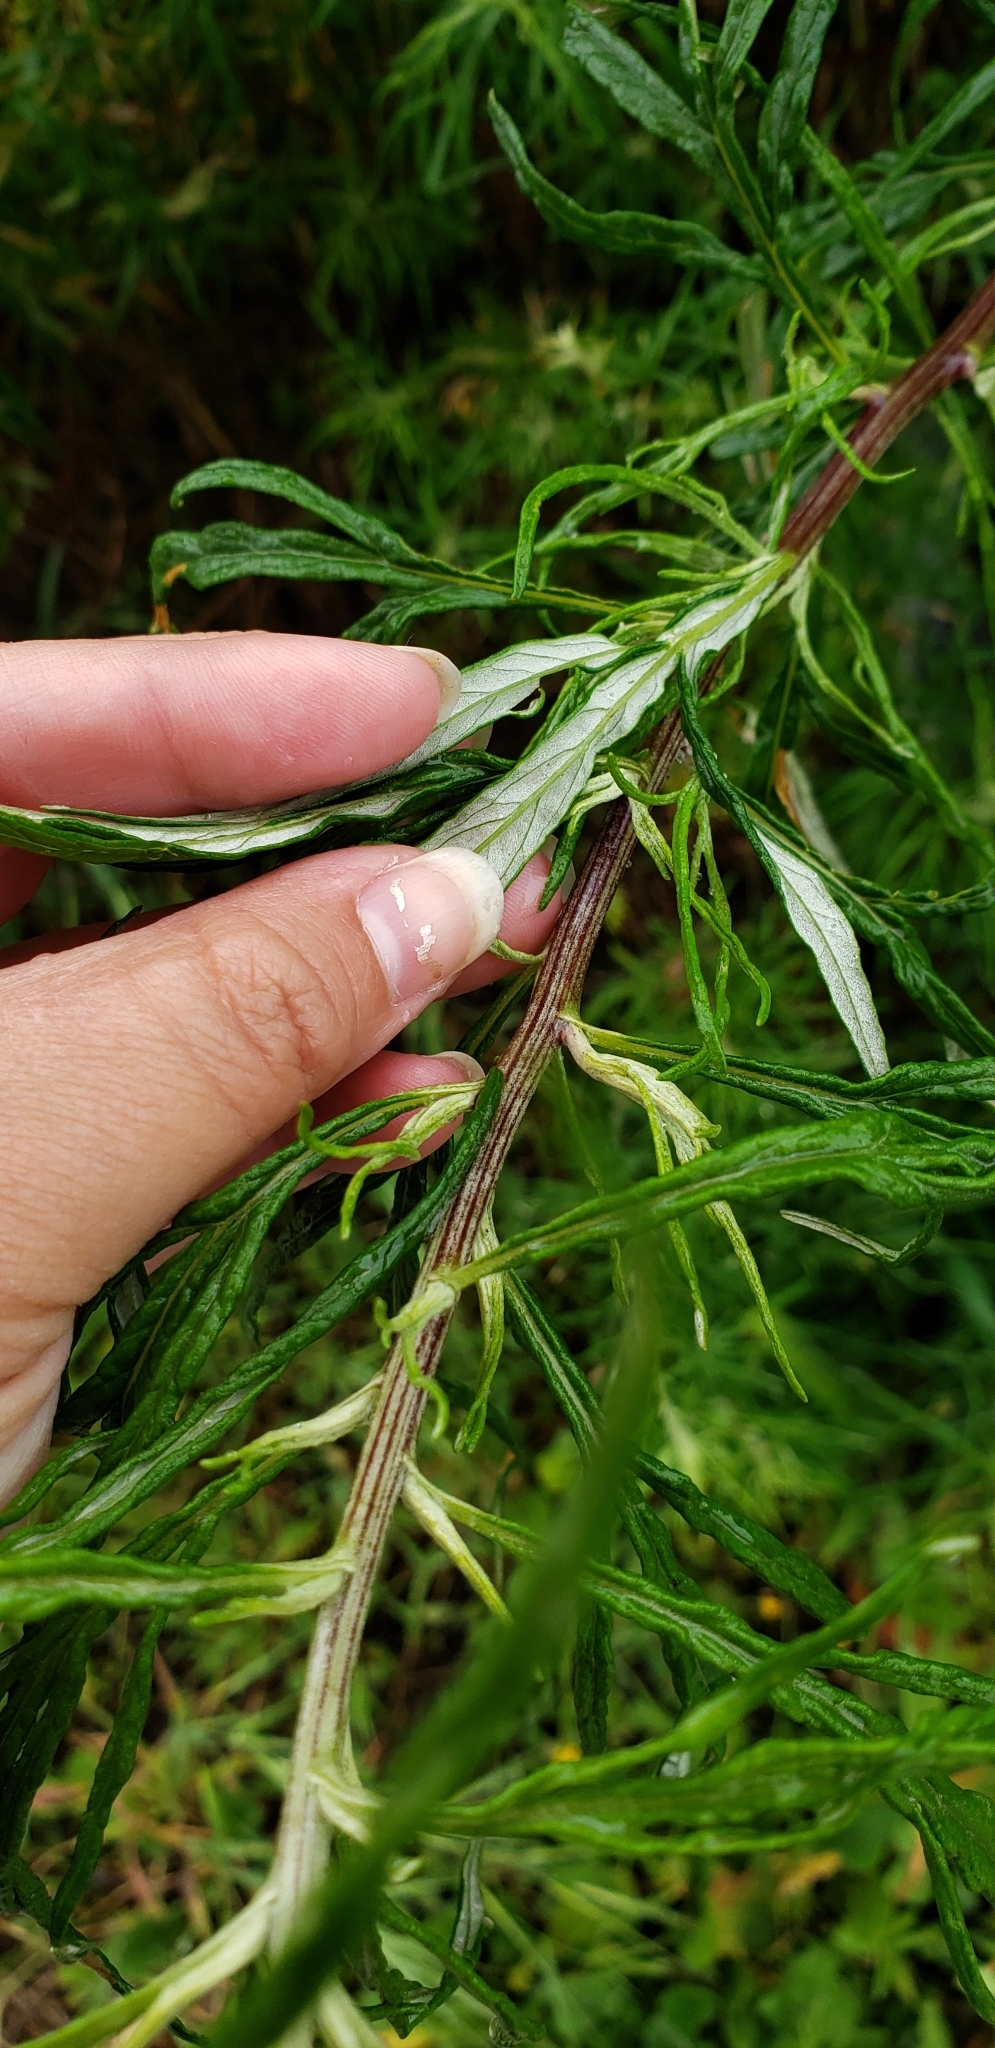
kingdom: Plantae
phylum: Tracheophyta
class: Magnoliopsida
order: Asterales
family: Asteraceae
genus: Artemisia
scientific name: Artemisia palmeri
